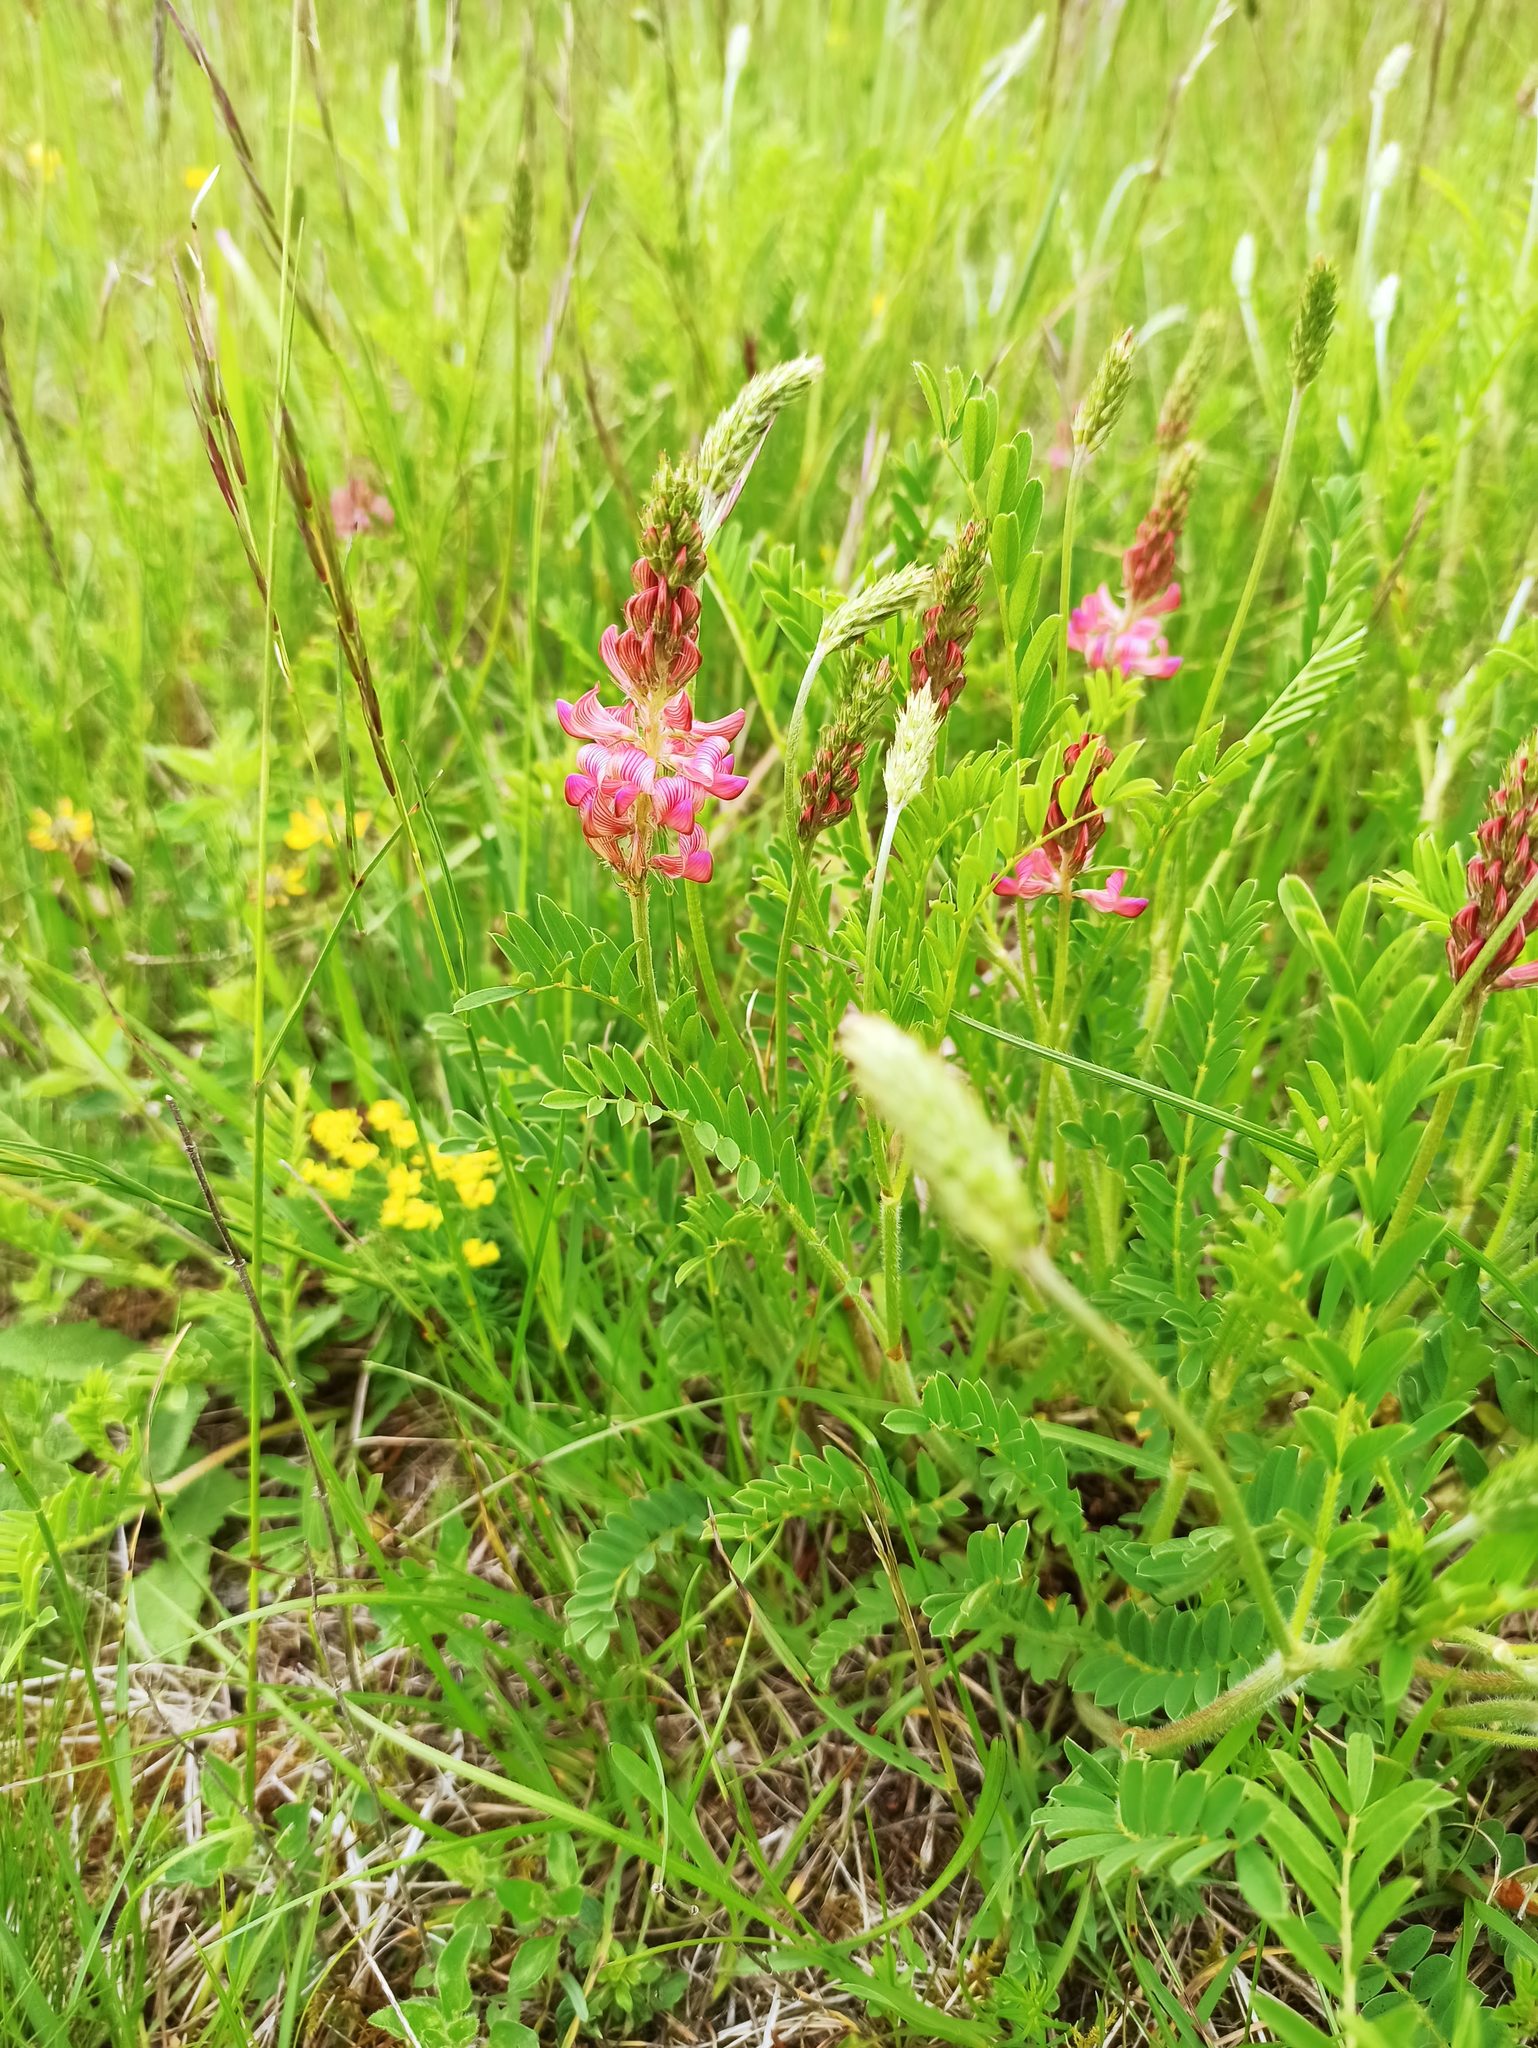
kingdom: Plantae
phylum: Tracheophyta
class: Magnoliopsida
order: Fabales
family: Fabaceae
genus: Onobrychis
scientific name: Onobrychis viciifolia
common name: Sainfoin
